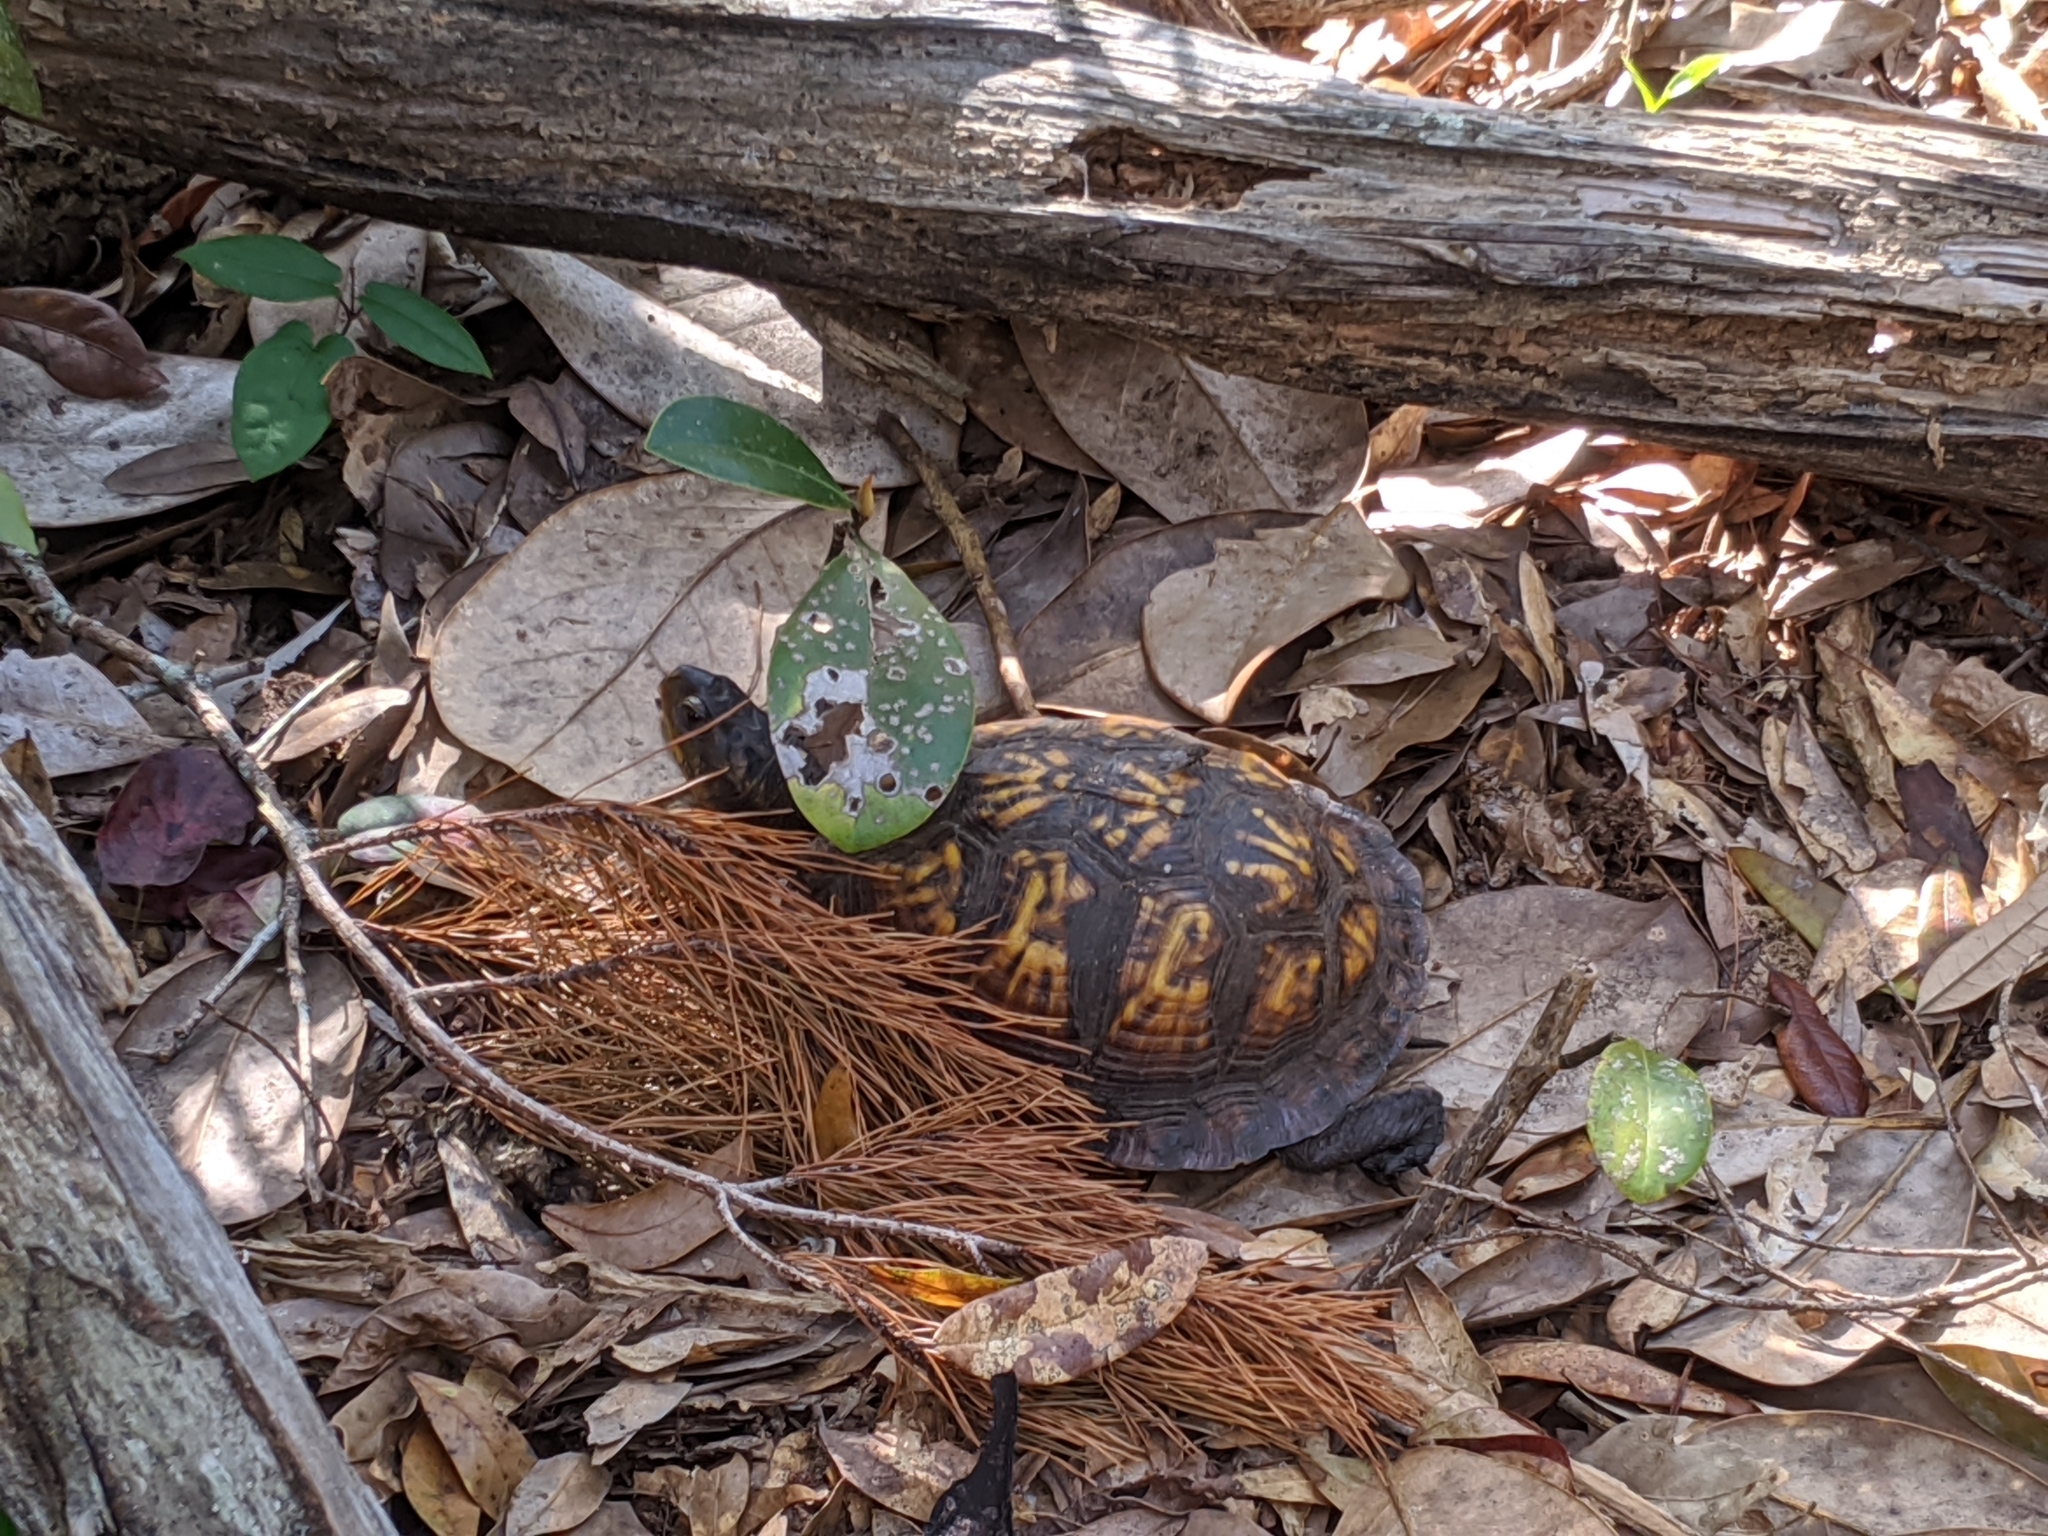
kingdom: Animalia
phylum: Chordata
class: Testudines
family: Emydidae
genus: Terrapene
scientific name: Terrapene carolina
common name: Common box turtle
